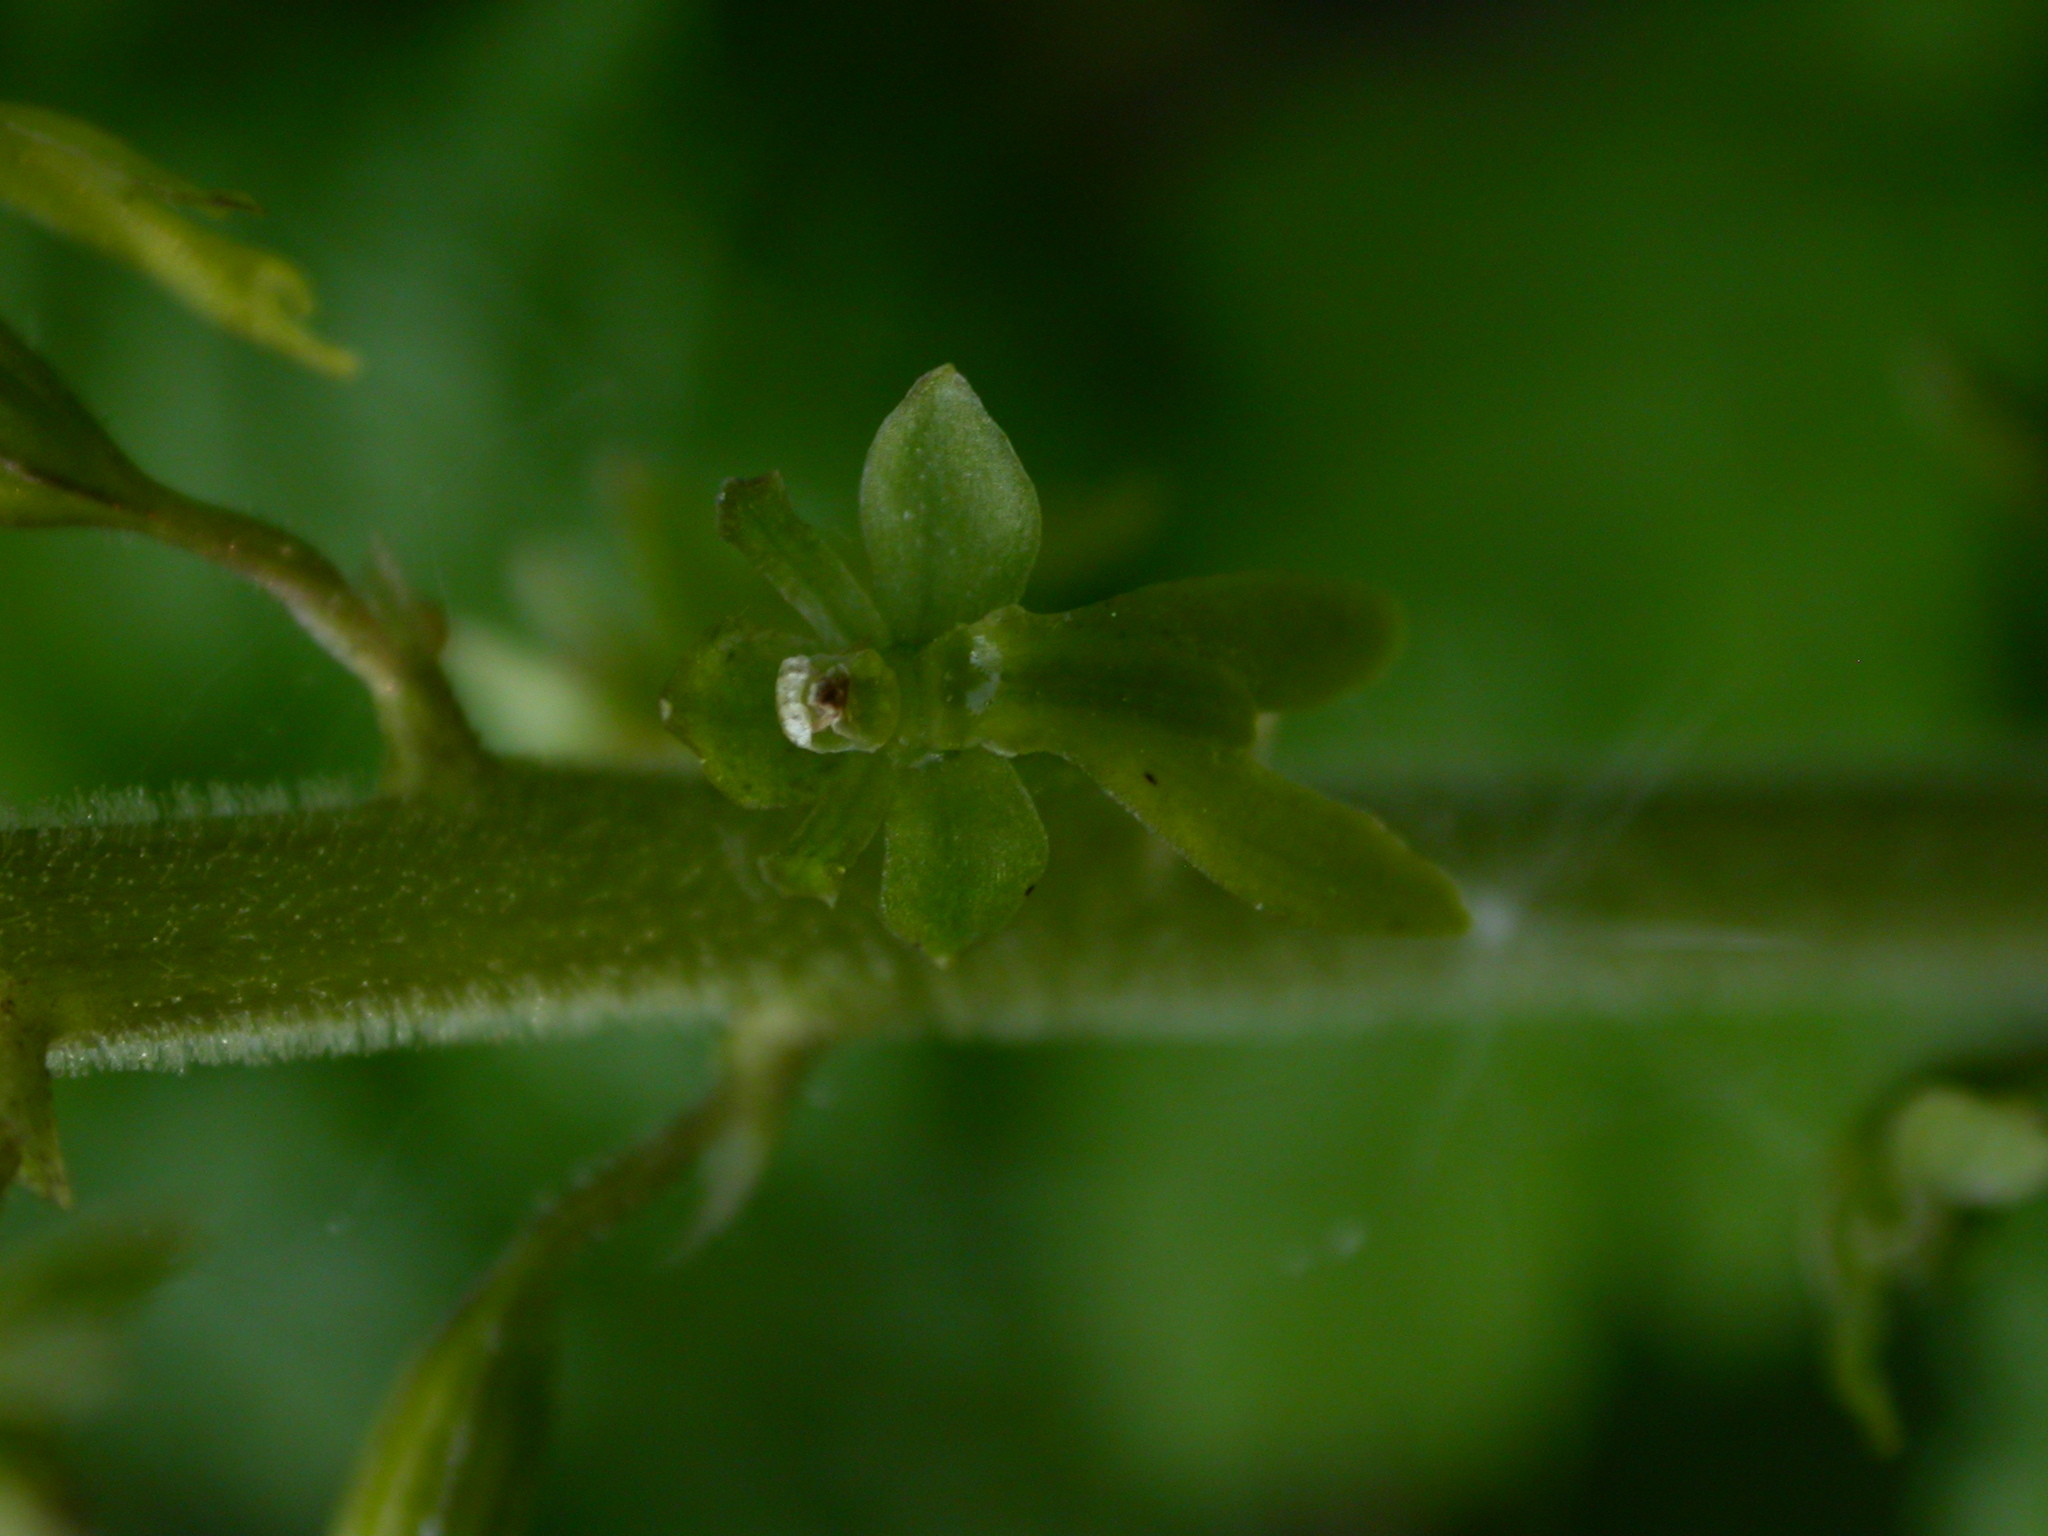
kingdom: Plantae
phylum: Tracheophyta
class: Liliopsida
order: Asparagales
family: Orchidaceae
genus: Neottia
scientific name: Neottia ovata
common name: Common twayblade
